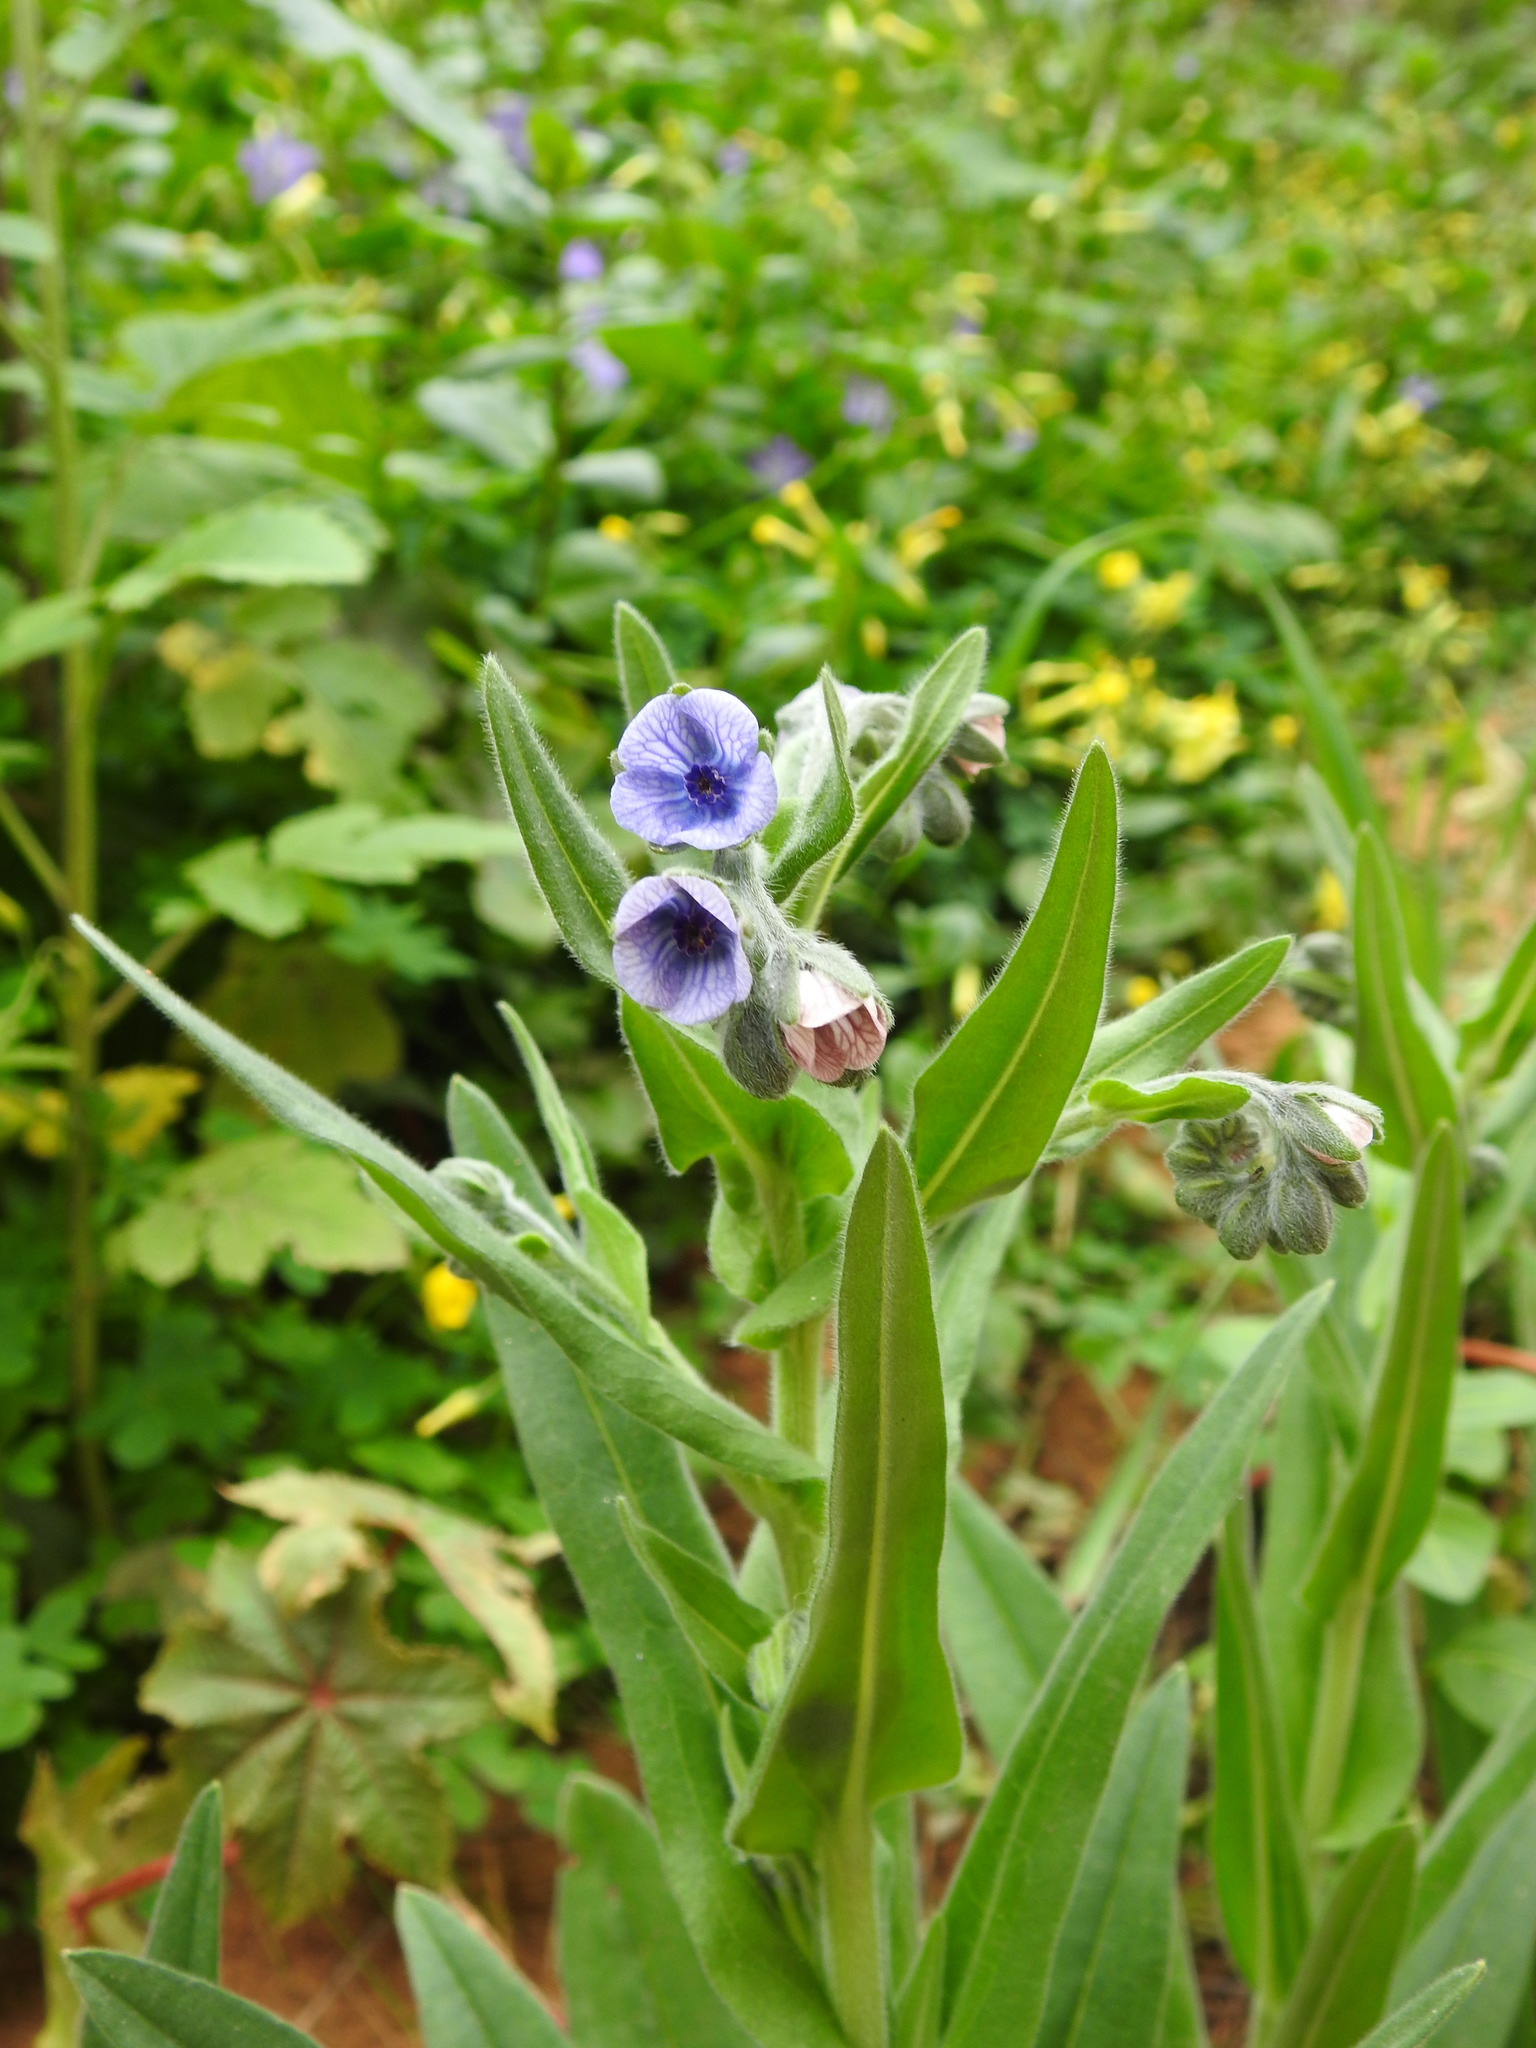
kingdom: Plantae
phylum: Tracheophyta
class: Magnoliopsida
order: Boraginales
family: Boraginaceae
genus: Cynoglossum
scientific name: Cynoglossum creticum
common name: Blue hound's tongue
